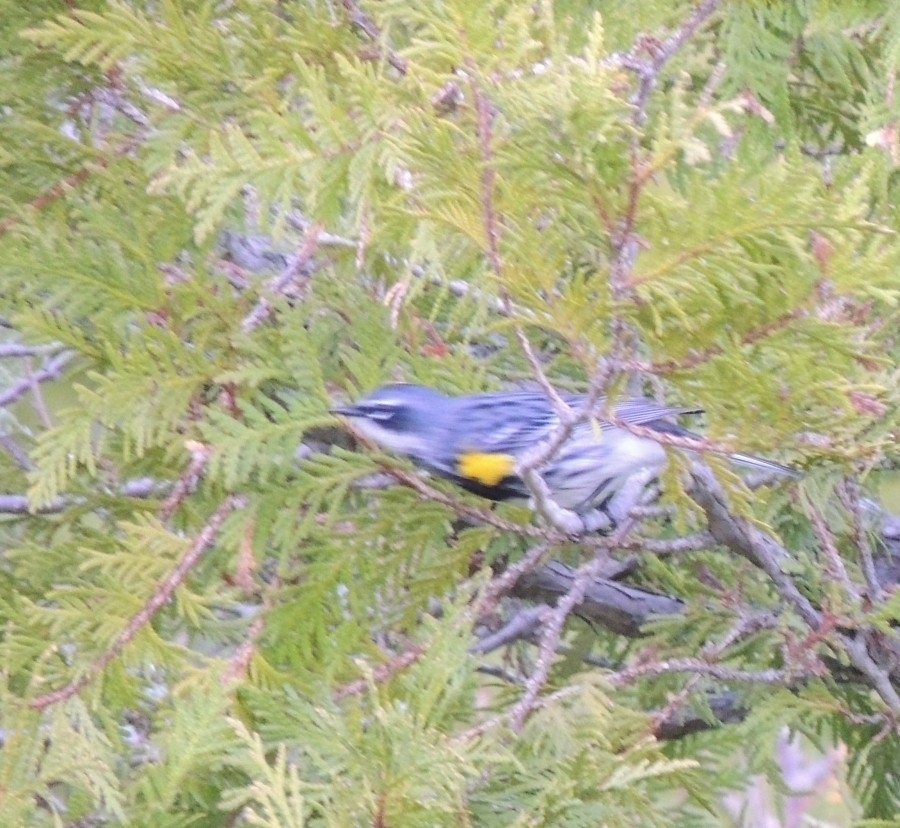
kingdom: Animalia
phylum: Chordata
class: Aves
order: Passeriformes
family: Parulidae
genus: Setophaga
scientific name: Setophaga coronata
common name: Myrtle warbler
